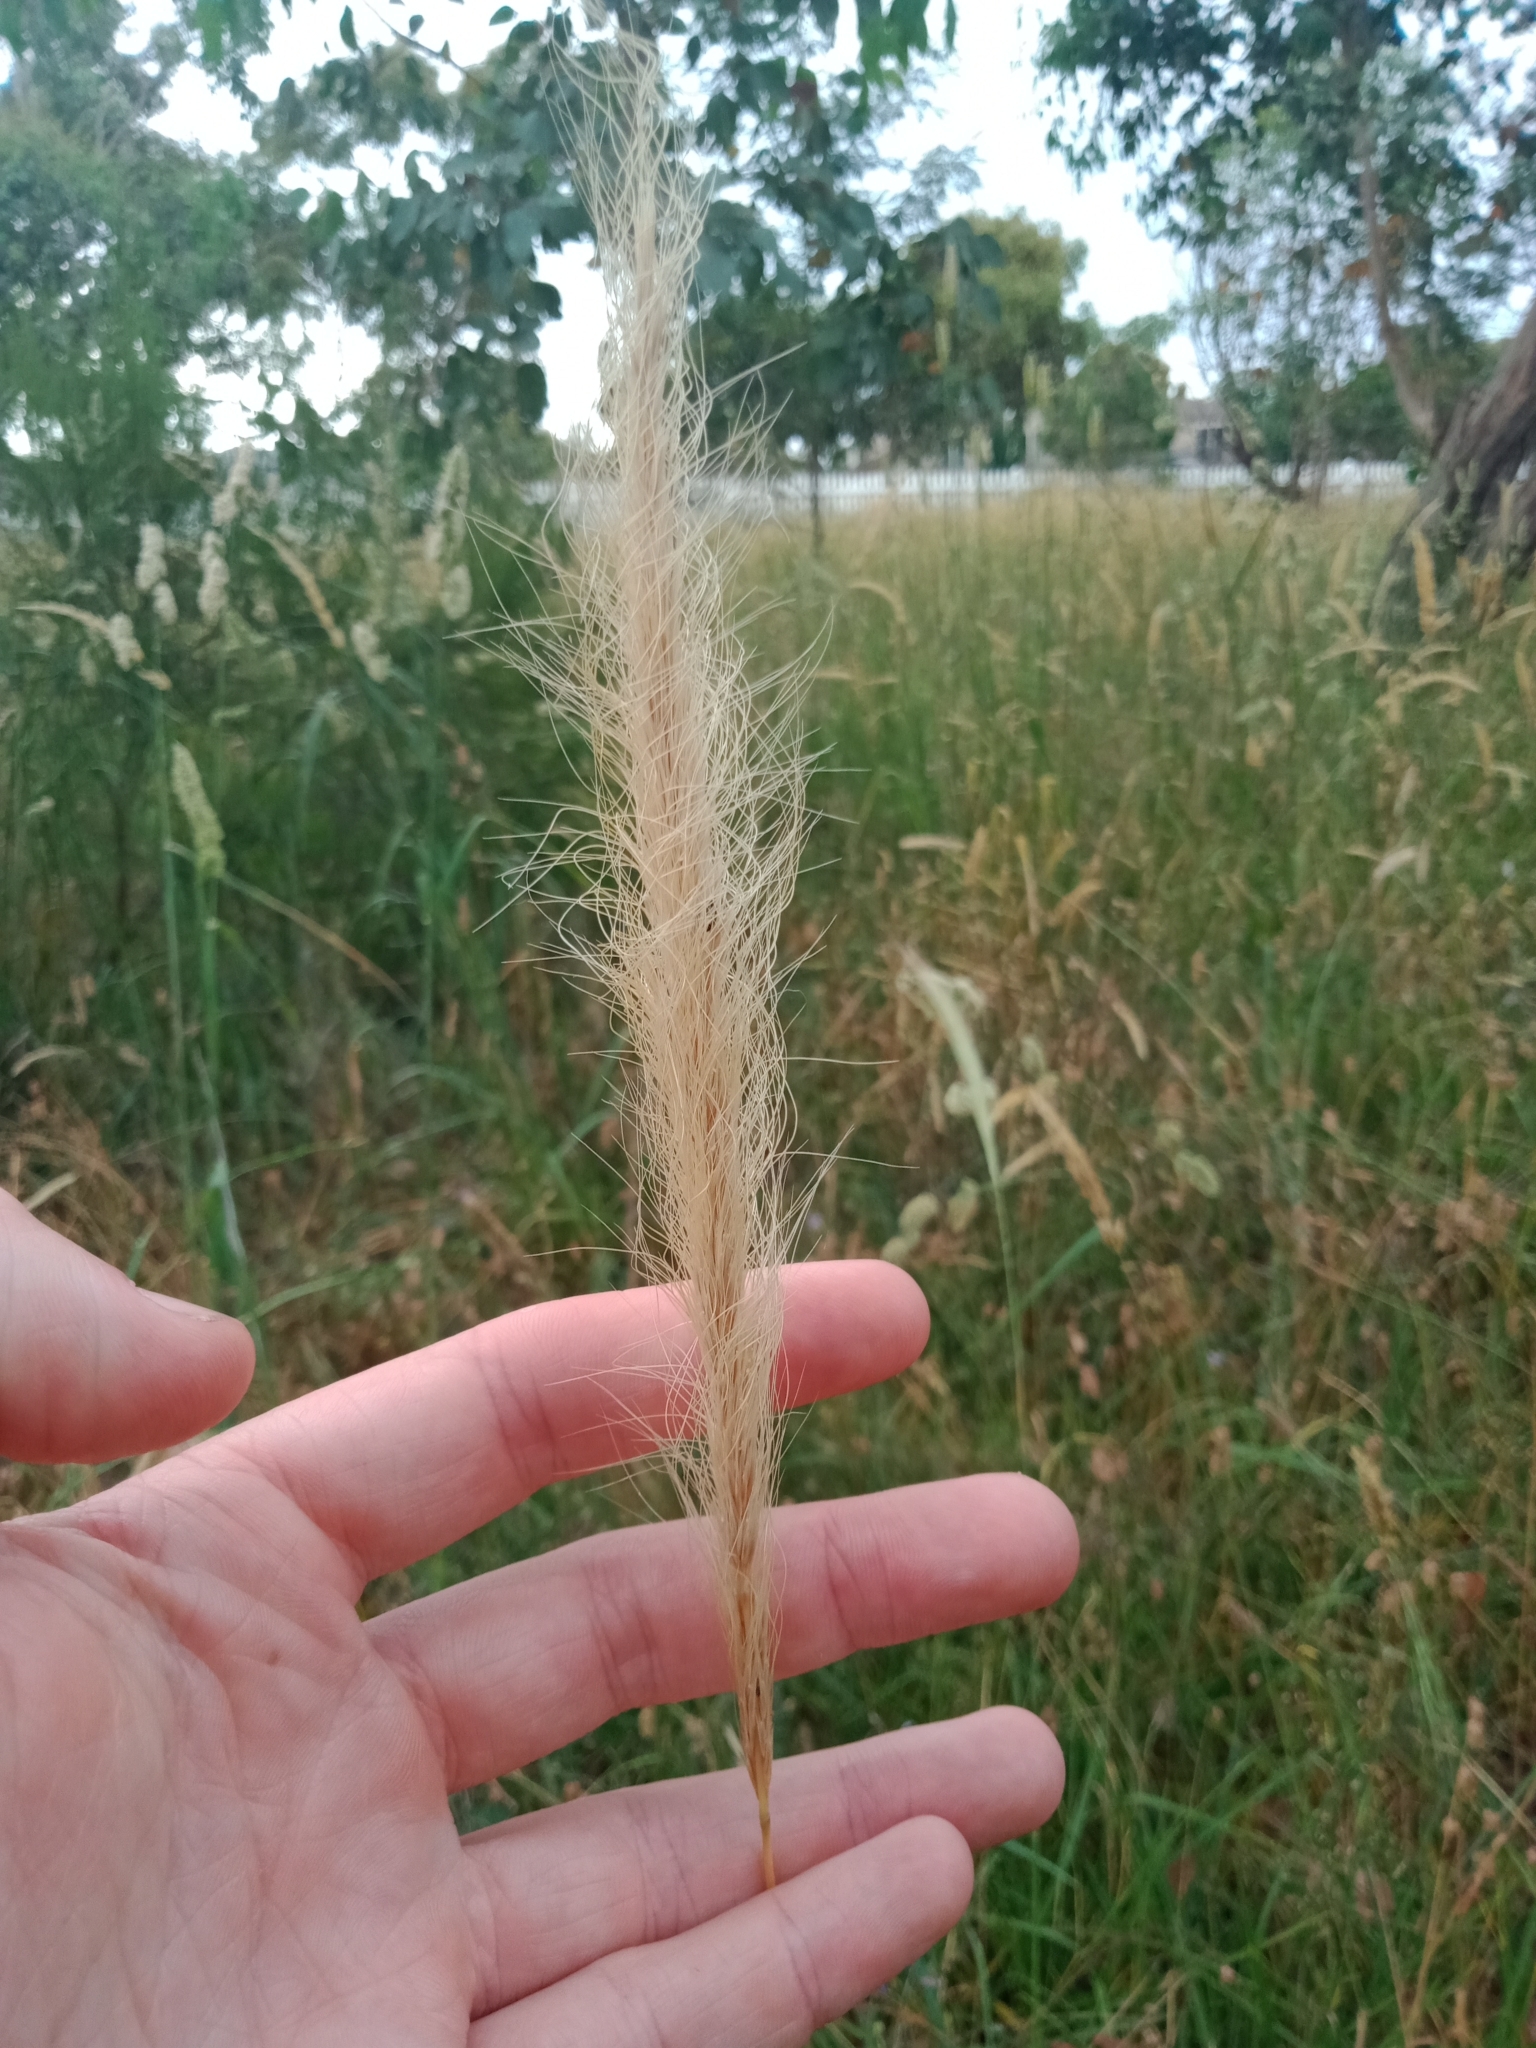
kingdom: Plantae
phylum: Tracheophyta
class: Liliopsida
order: Poales
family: Poaceae
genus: Dichelachne
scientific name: Dichelachne crinita
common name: Clovenfoot plumegrass
